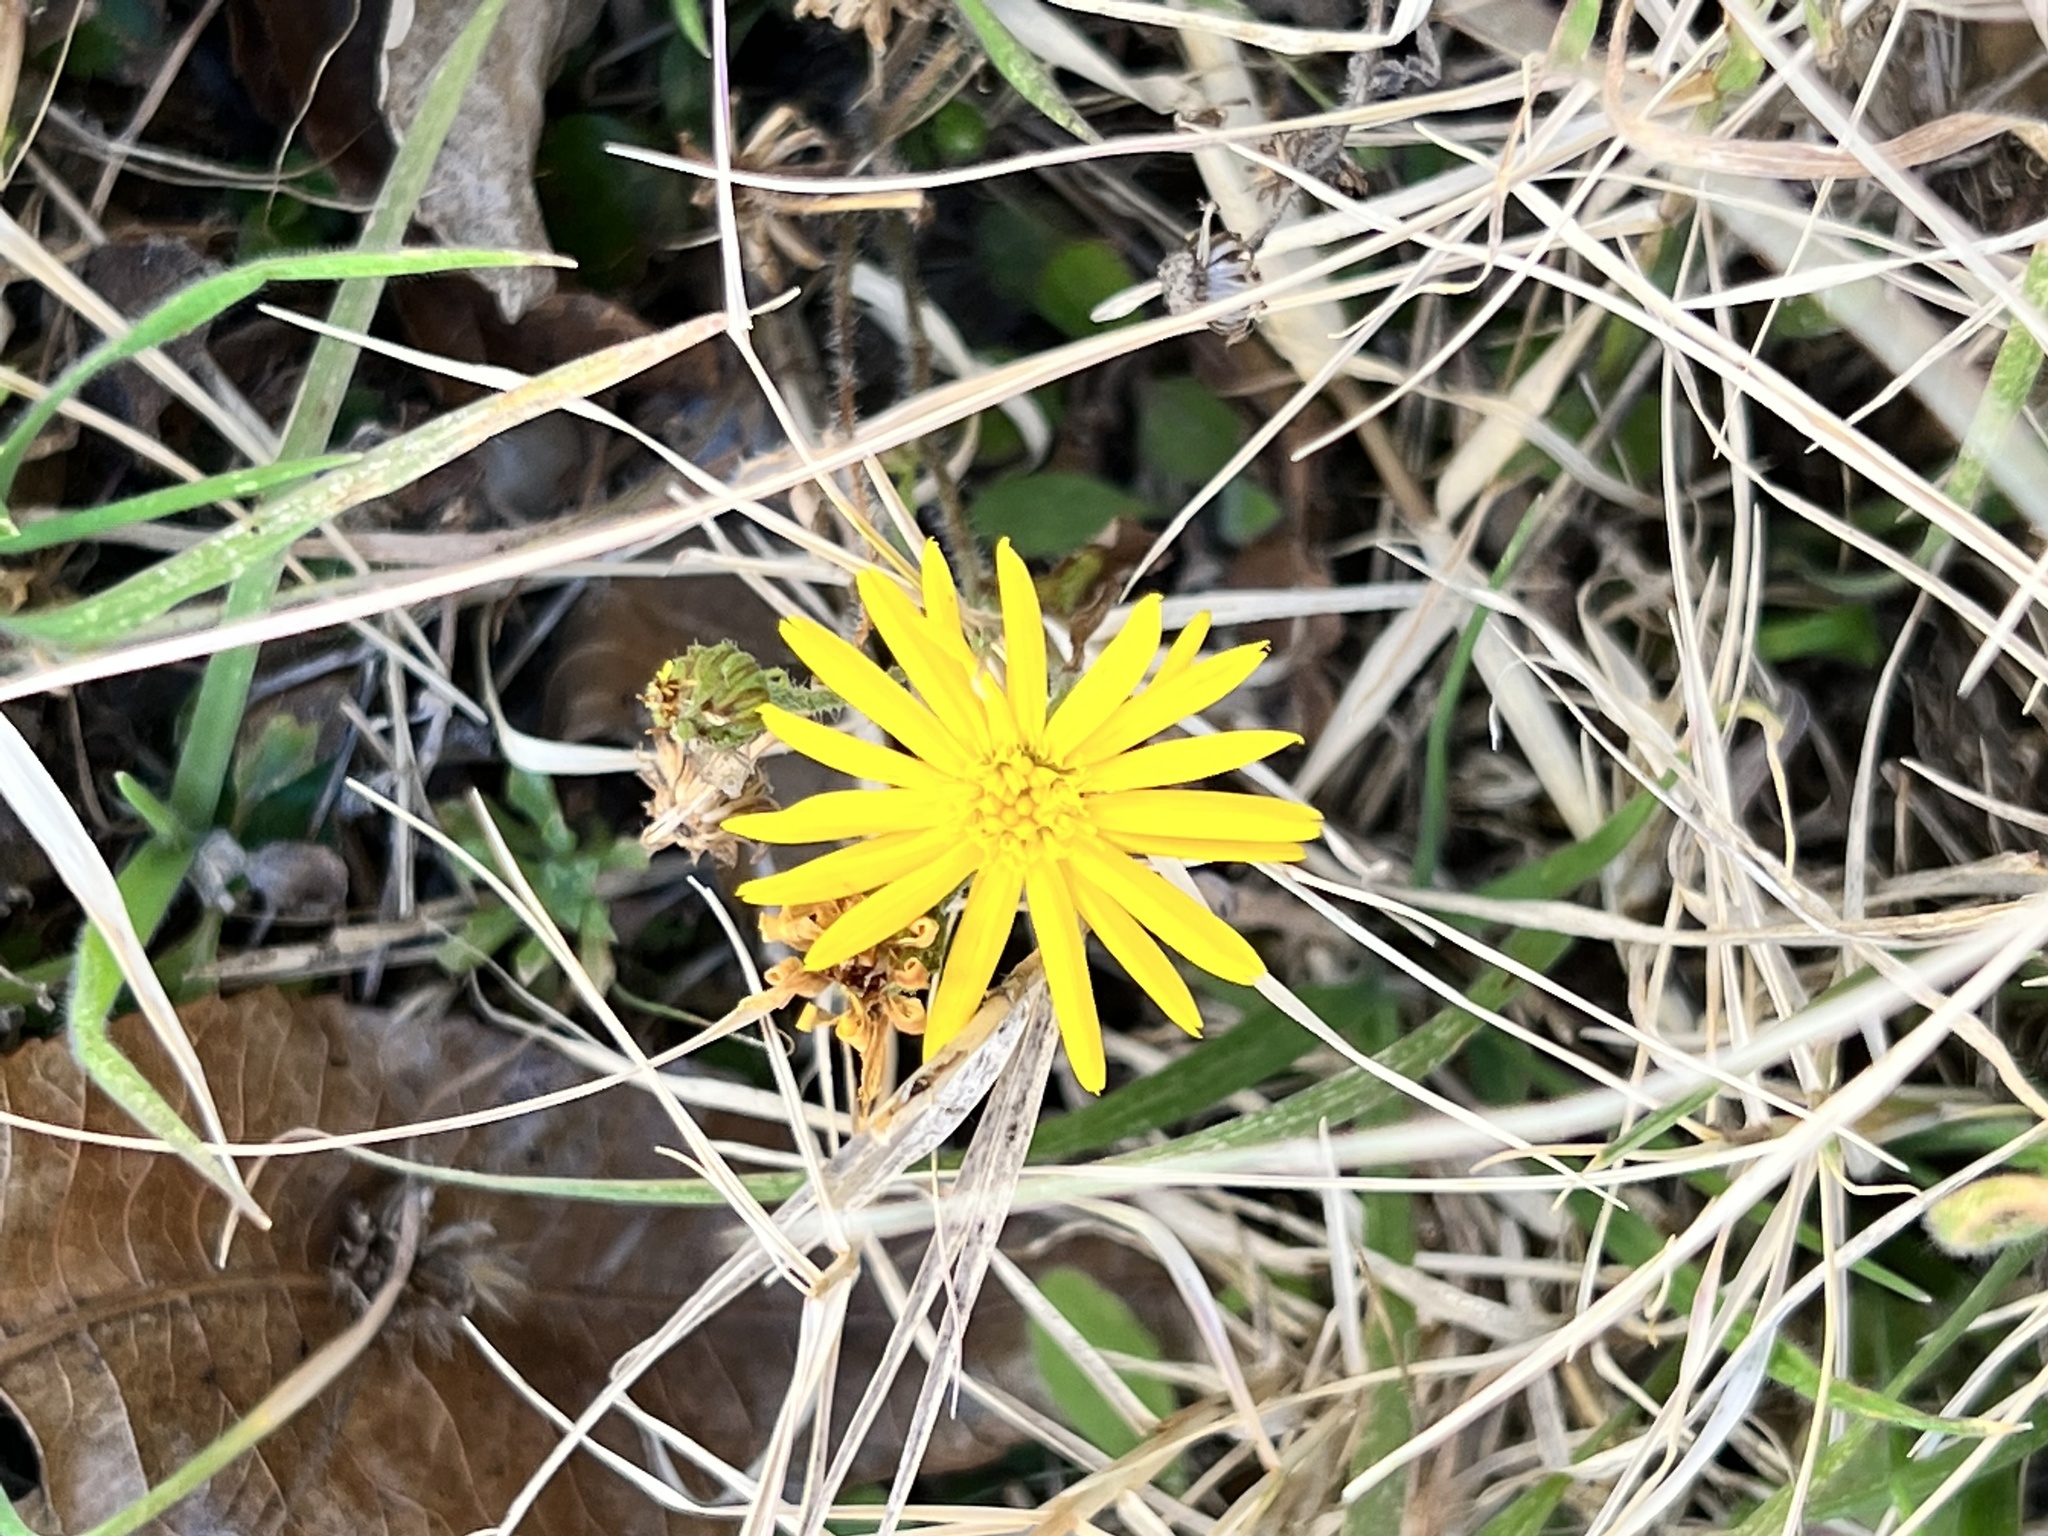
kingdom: Plantae
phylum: Tracheophyta
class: Magnoliopsida
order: Asterales
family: Asteraceae
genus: Heterotheca
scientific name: Heterotheca subaxillaris
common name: Camphorweed
